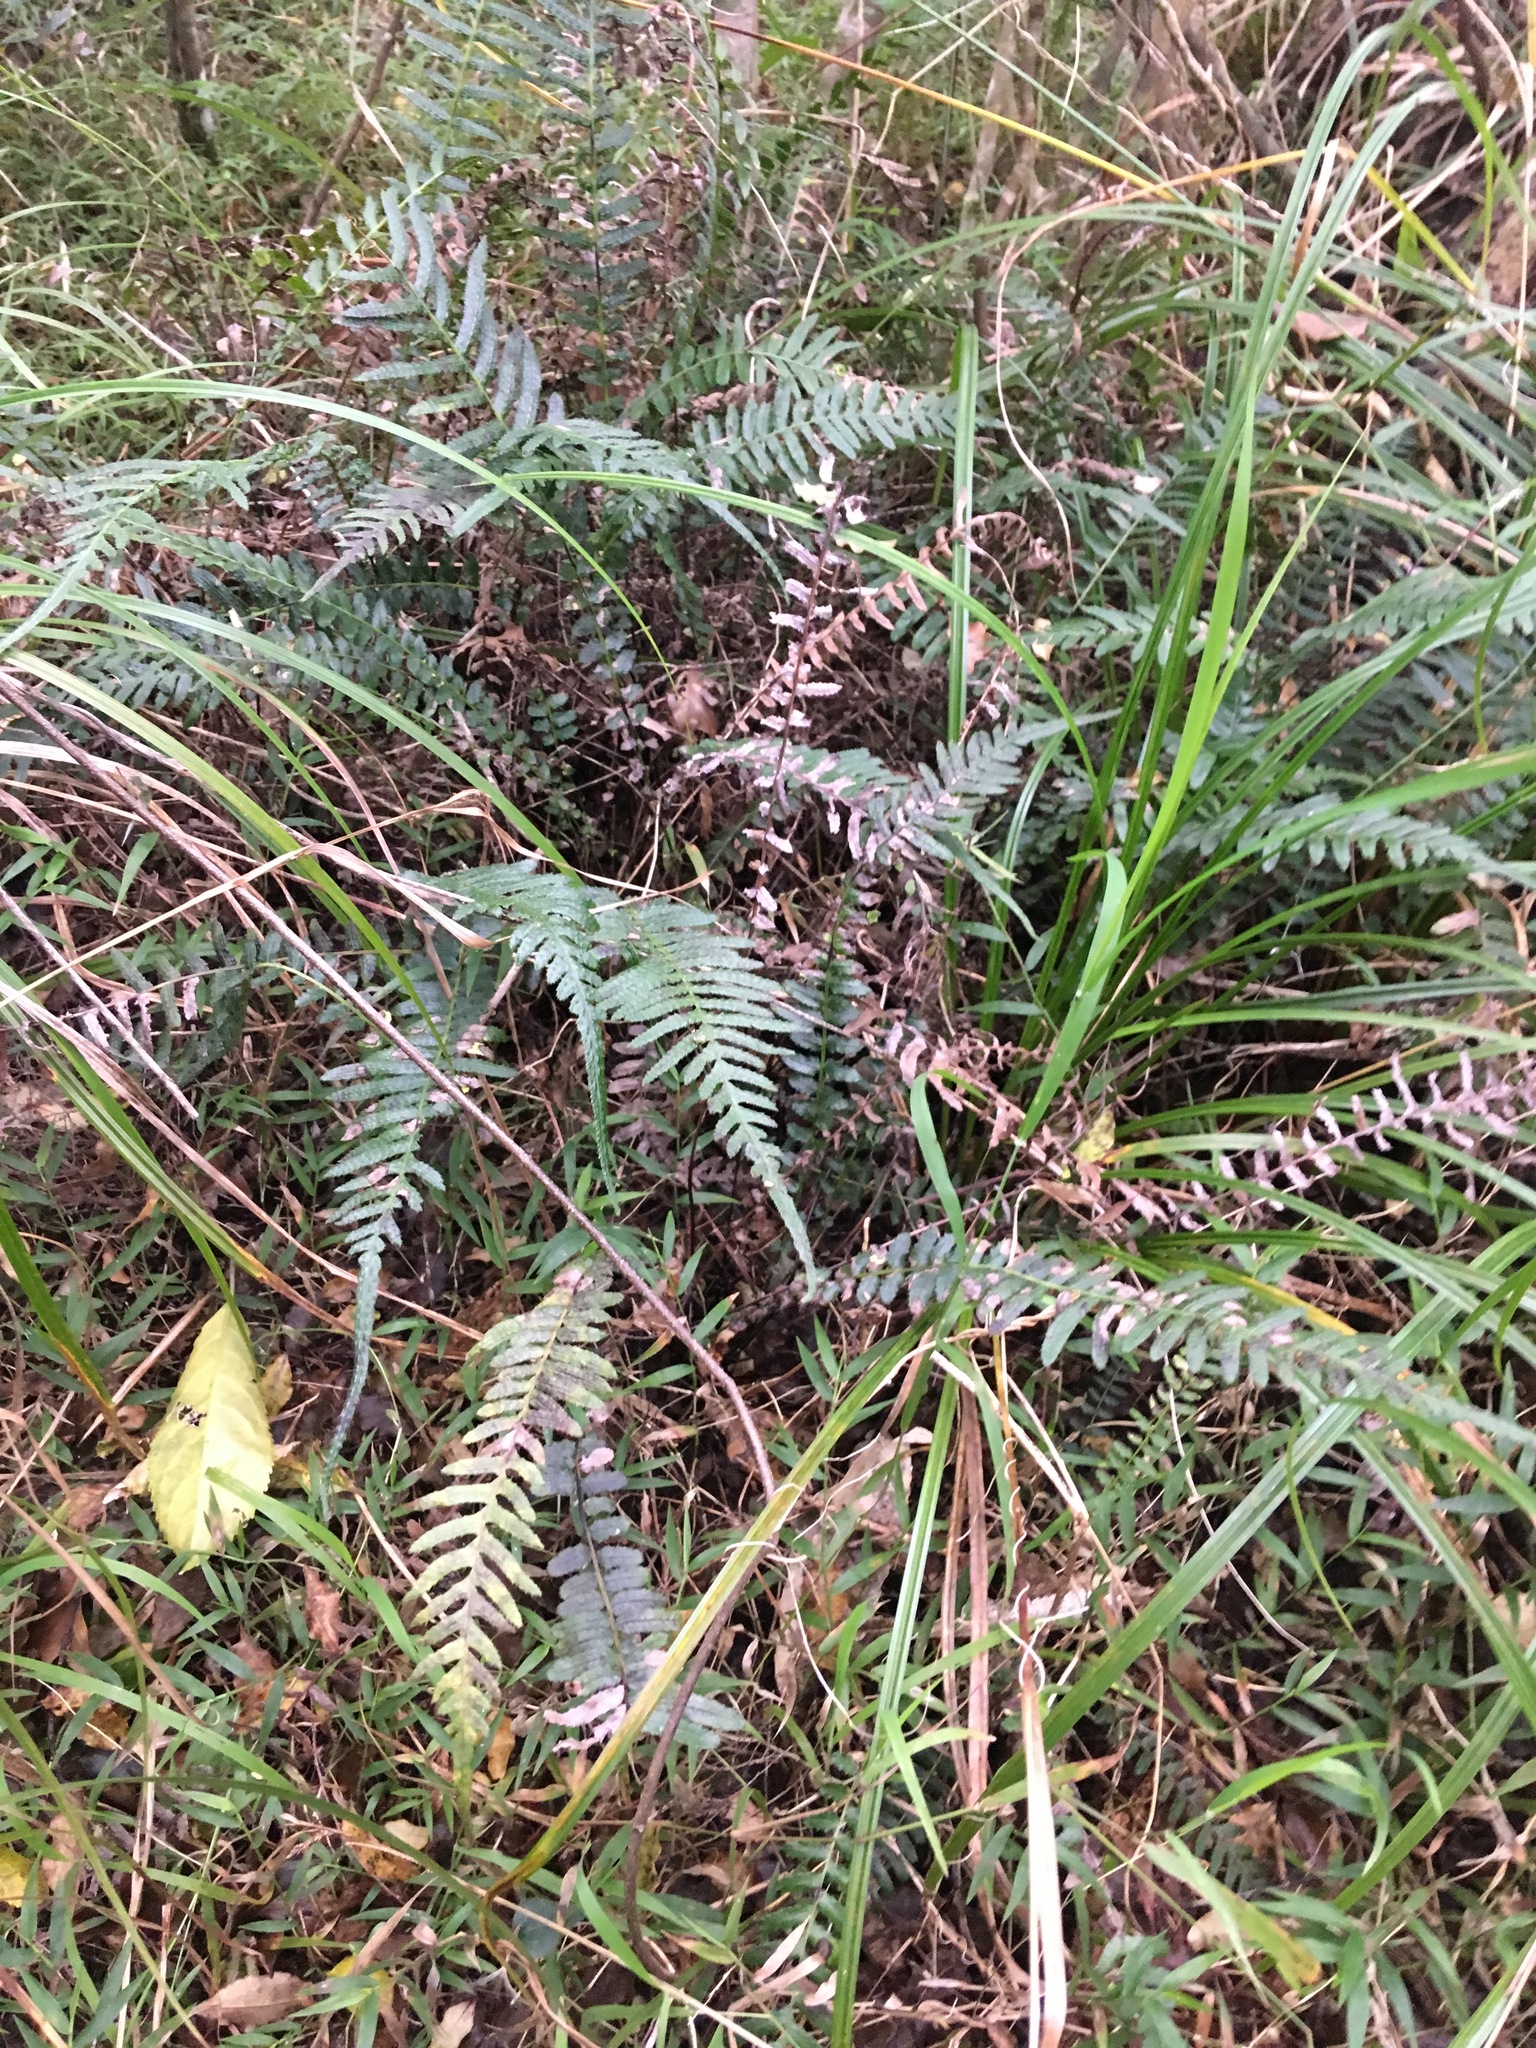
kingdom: Plantae
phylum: Tracheophyta
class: Polypodiopsida
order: Polypodiales
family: Blechnaceae
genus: Doodia
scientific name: Doodia australis
